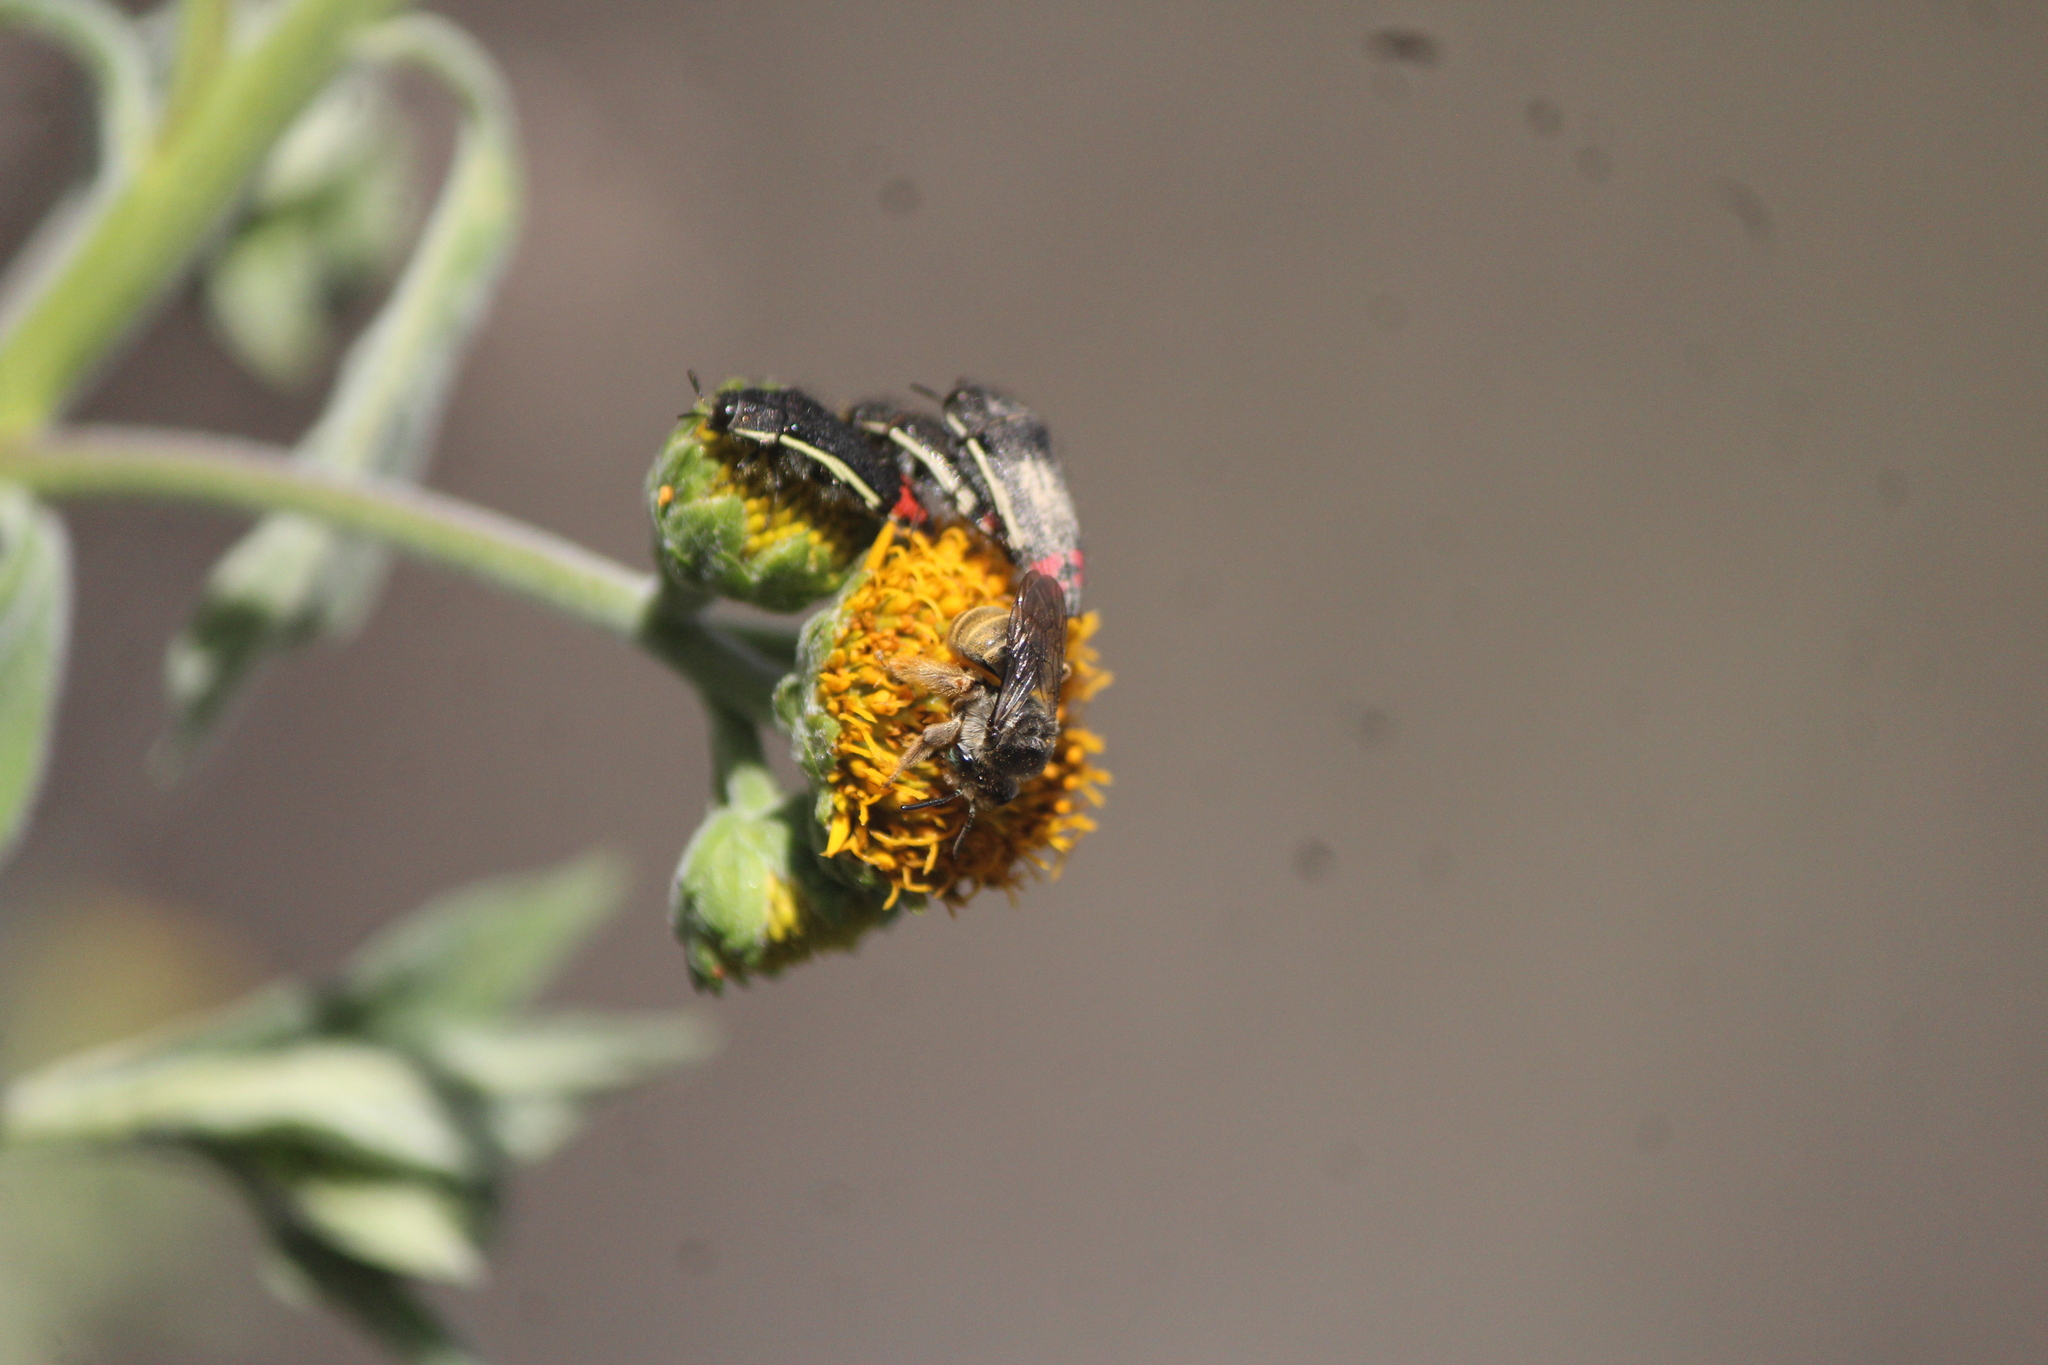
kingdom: Animalia
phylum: Arthropoda
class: Insecta
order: Coleoptera
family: Buprestidae
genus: Acmaeodera
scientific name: Acmaeodera flavomarginata
